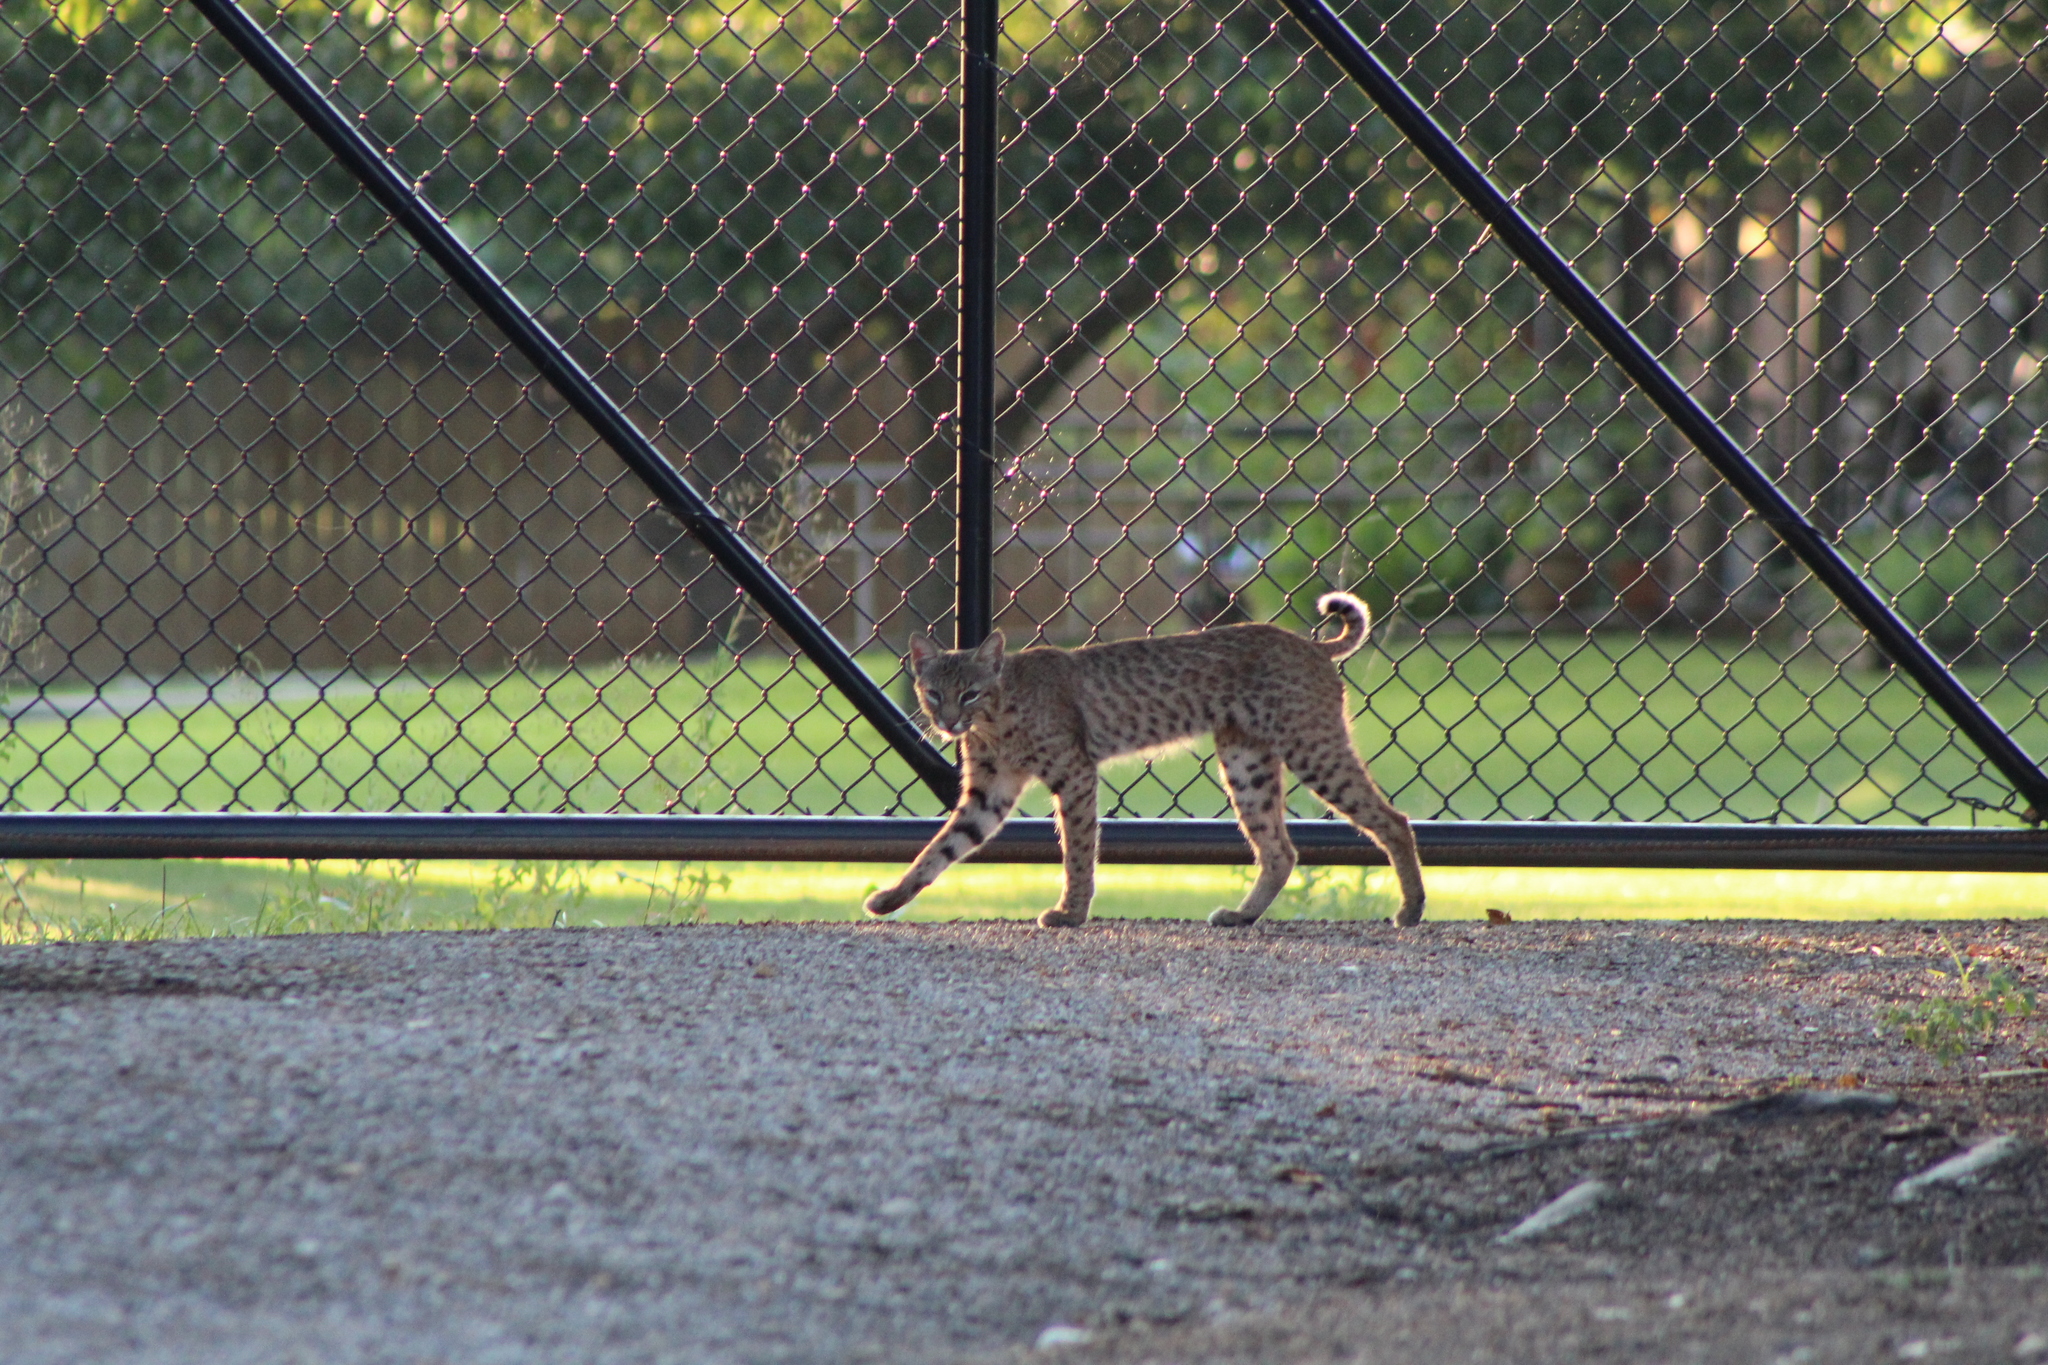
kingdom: Animalia
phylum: Chordata
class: Mammalia
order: Carnivora
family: Felidae
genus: Lynx
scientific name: Lynx rufus
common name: Bobcat
